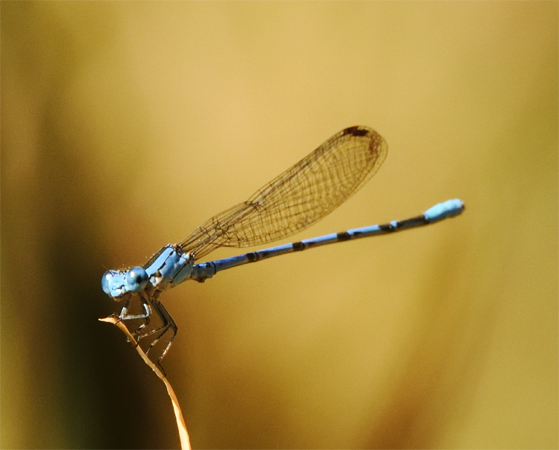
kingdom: Animalia
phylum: Arthropoda
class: Insecta
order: Odonata
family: Coenagrionidae
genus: Argia
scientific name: Argia vivida
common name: Vivid dancer
